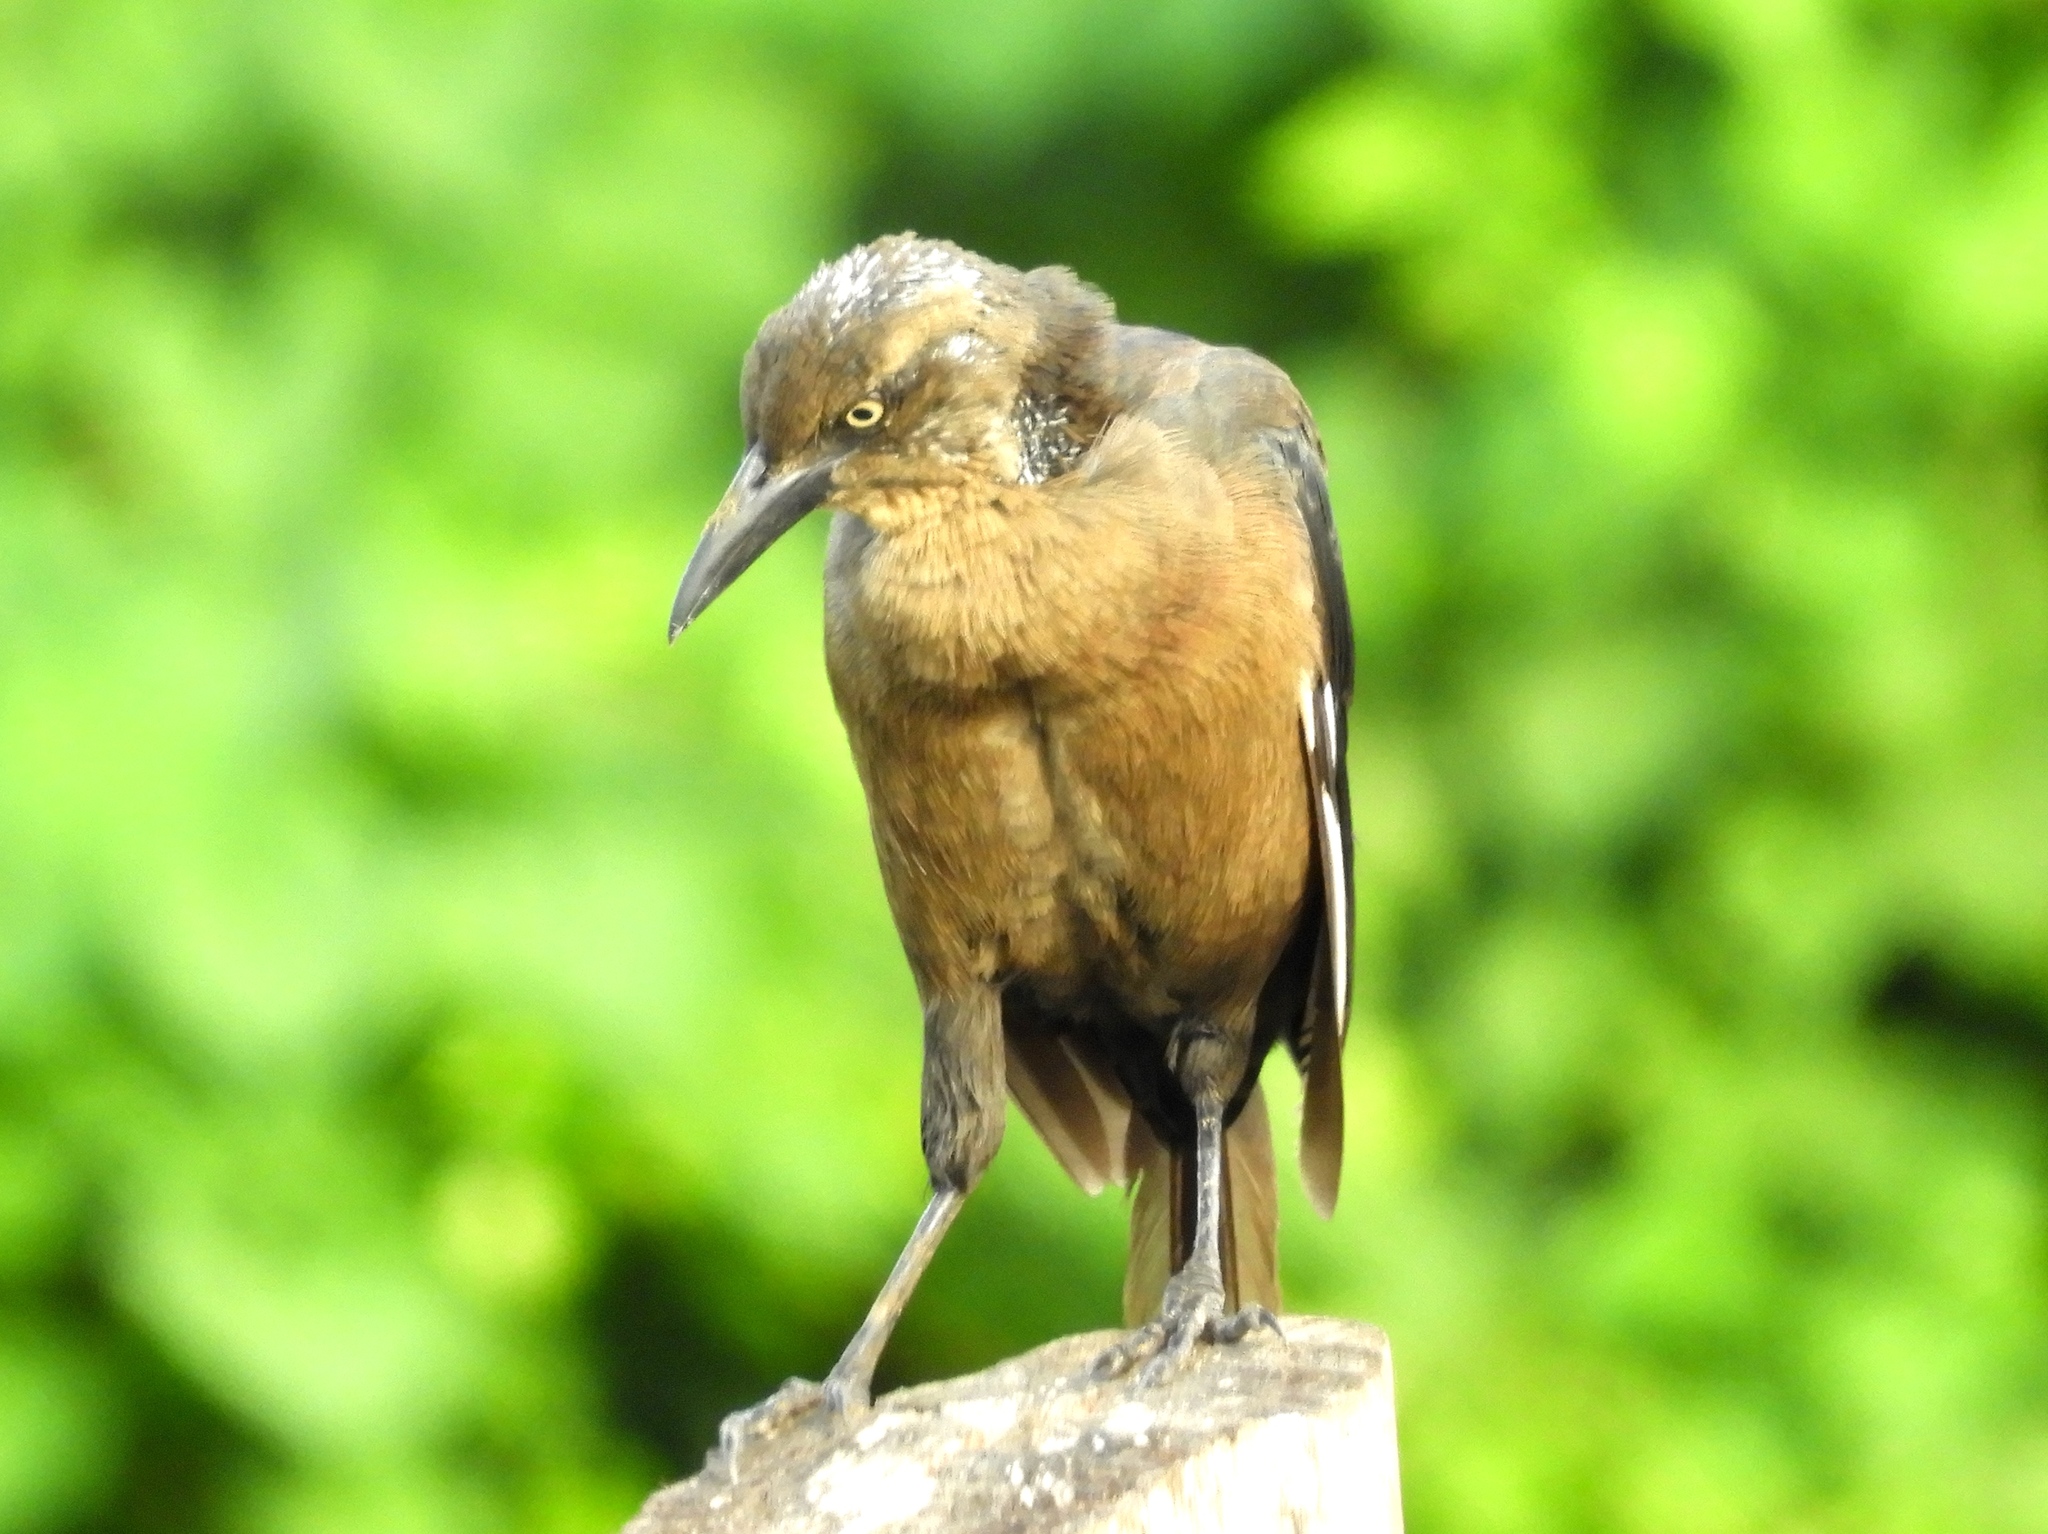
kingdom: Animalia
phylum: Chordata
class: Aves
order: Passeriformes
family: Icteridae
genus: Quiscalus
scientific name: Quiscalus mexicanus
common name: Great-tailed grackle
